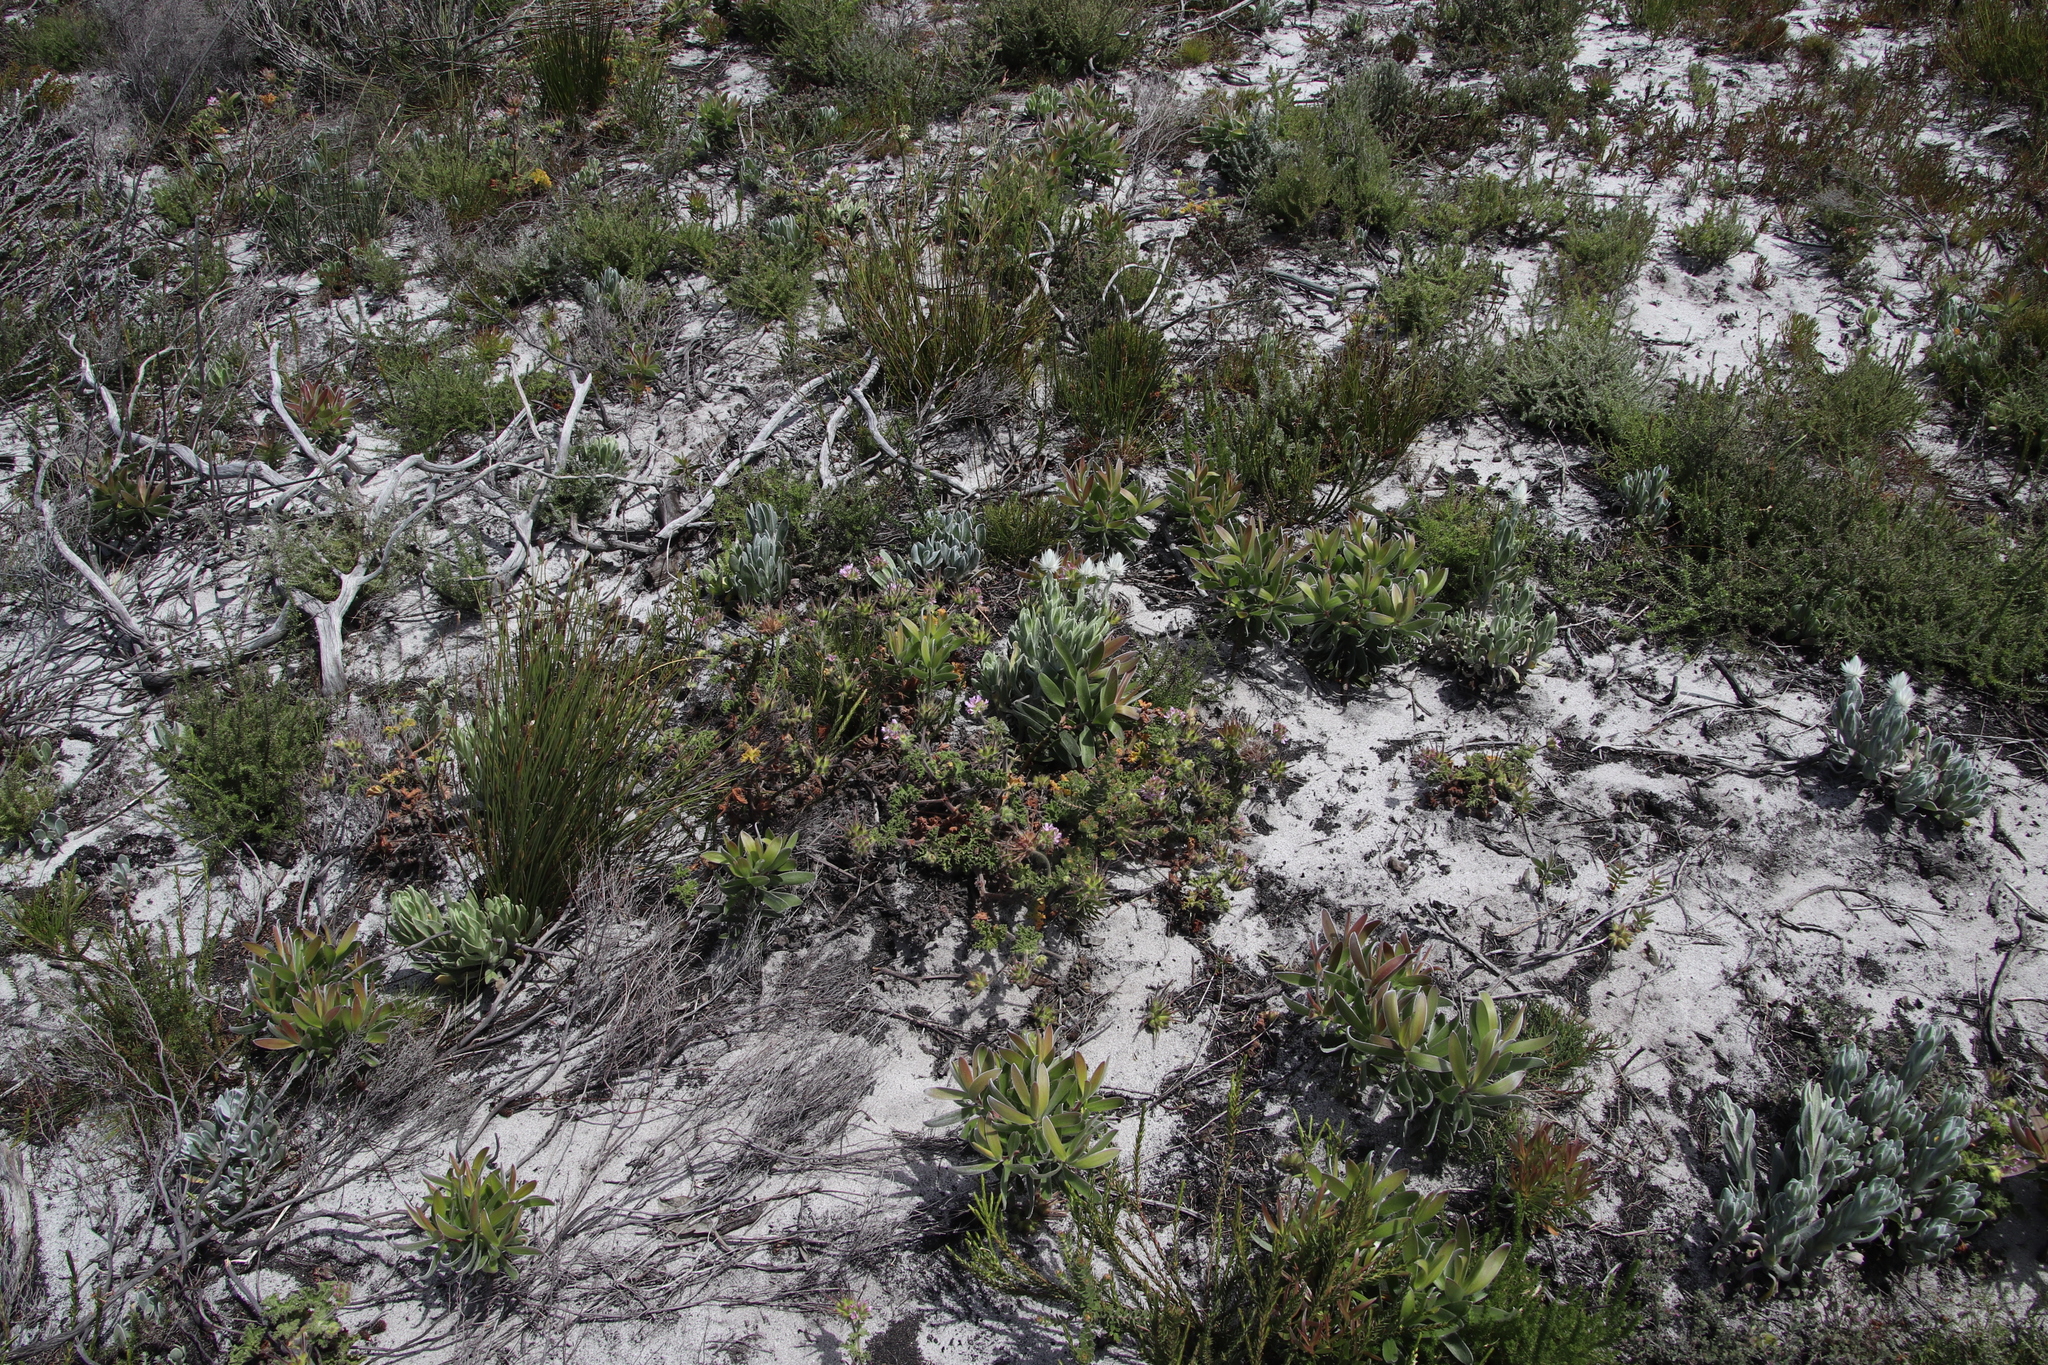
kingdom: Plantae
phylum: Tracheophyta
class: Magnoliopsida
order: Geraniales
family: Geraniaceae
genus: Pelargonium
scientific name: Pelargonium capitatum
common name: Rose scented geranium
